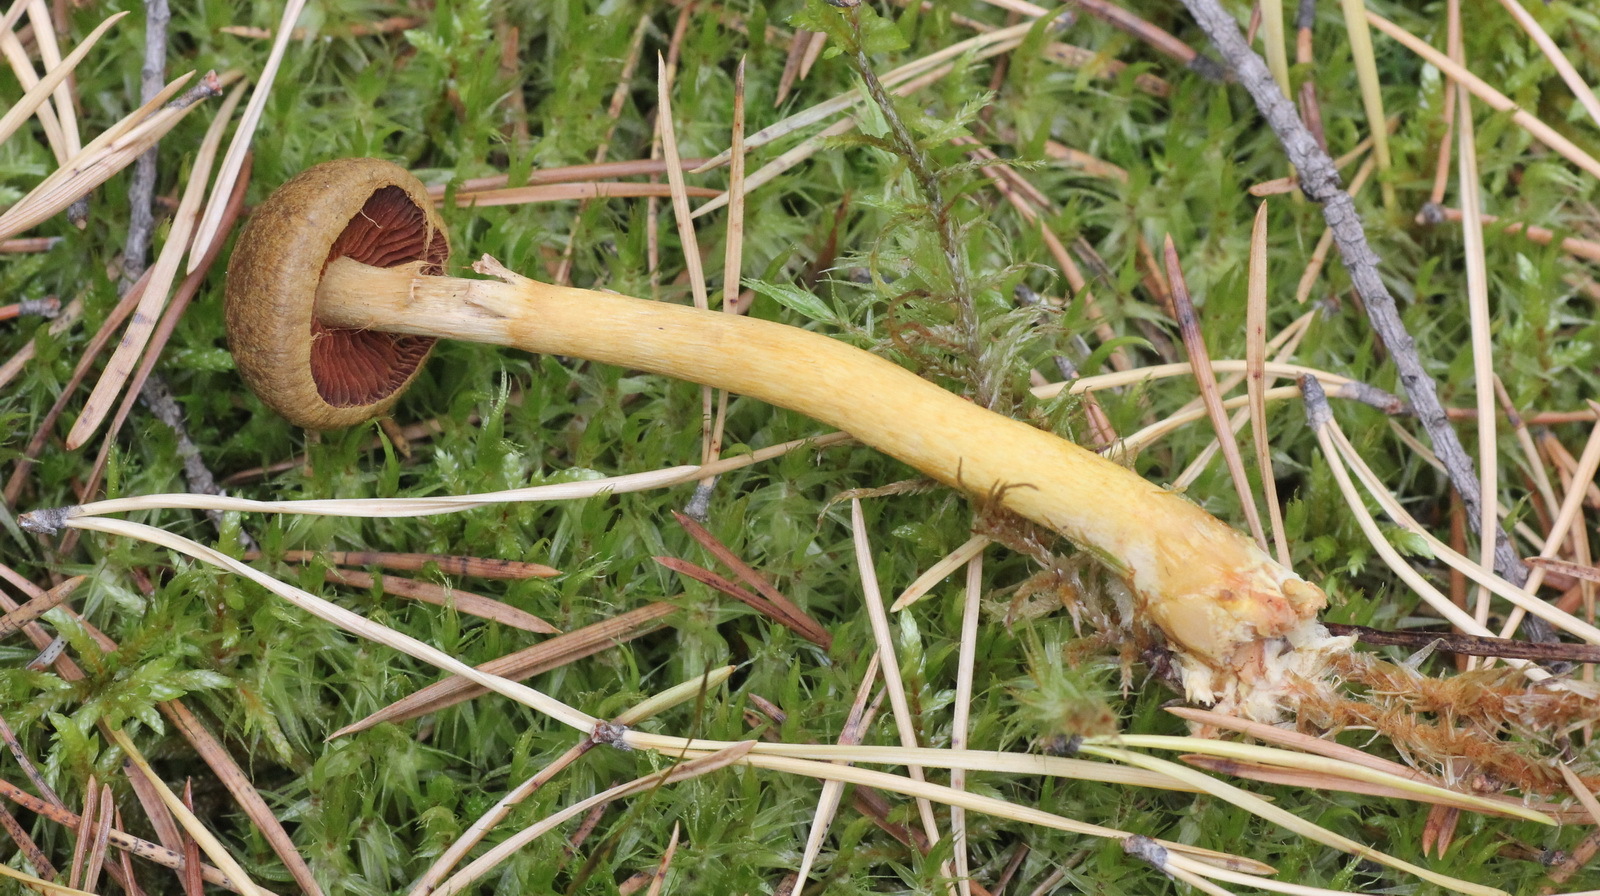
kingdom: Fungi
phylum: Basidiomycota
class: Agaricomycetes
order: Agaricales
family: Cortinariaceae
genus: Cortinarius
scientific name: Cortinarius semisanguineus
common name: Surprise webcap
